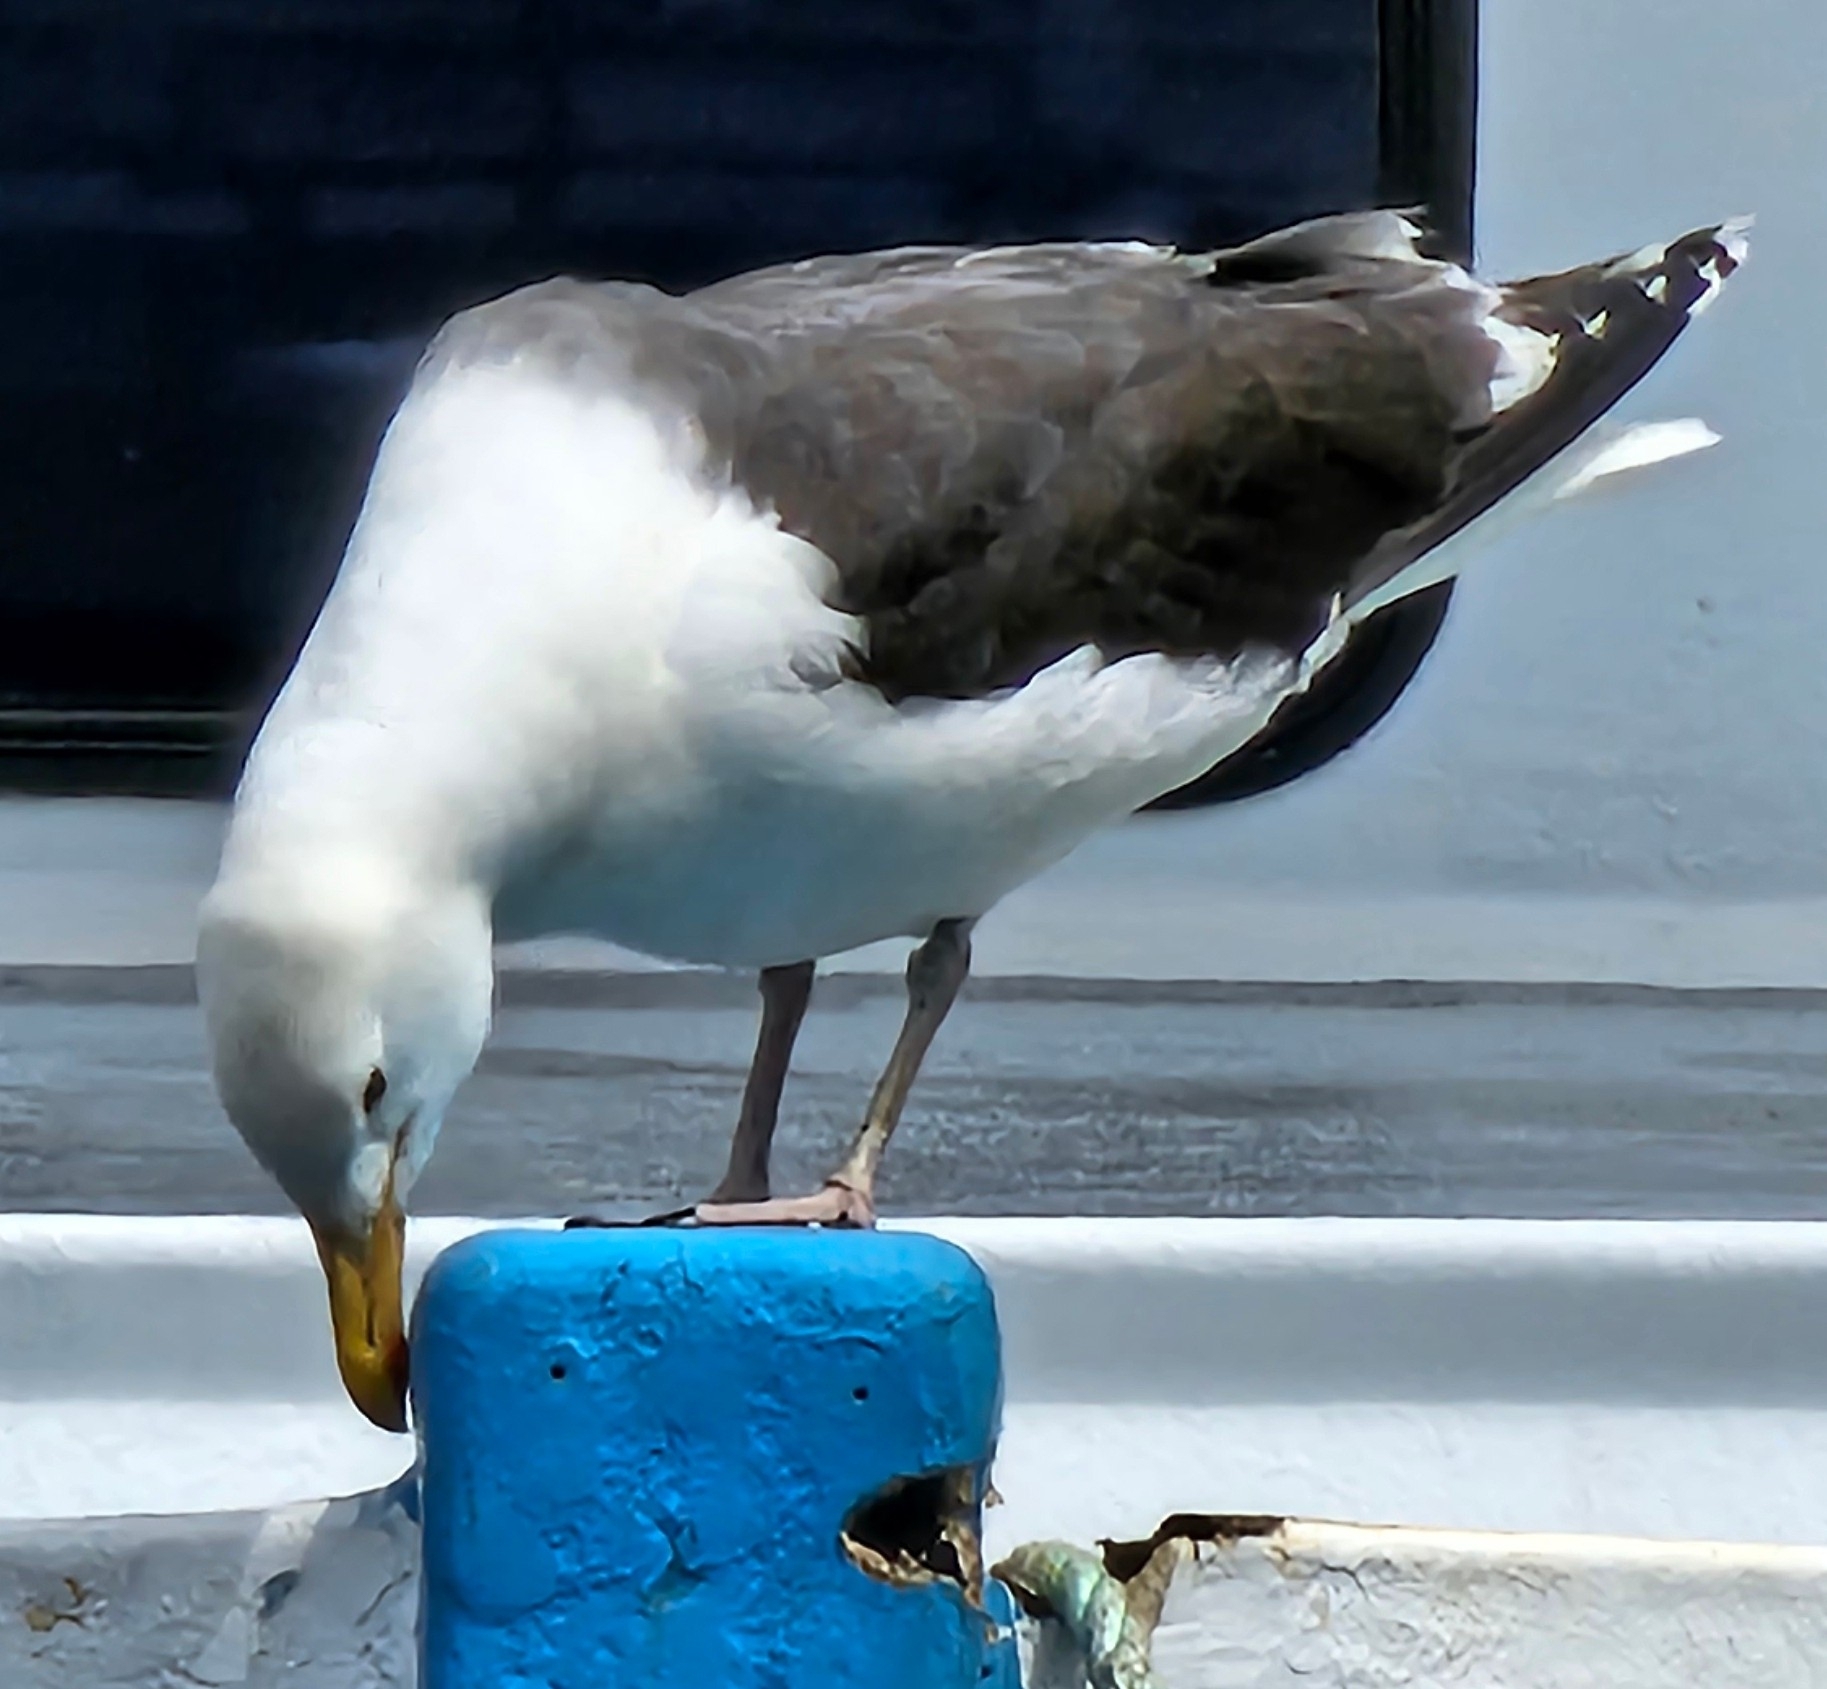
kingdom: Animalia
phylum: Chordata
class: Aves
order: Charadriiformes
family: Laridae
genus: Larus
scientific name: Larus marinus
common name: Great black-backed gull
